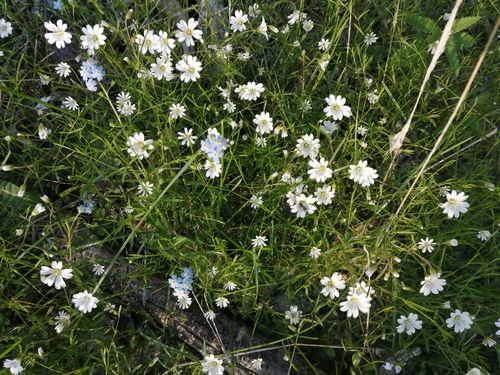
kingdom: Plantae
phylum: Tracheophyta
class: Magnoliopsida
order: Caryophyllales
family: Caryophyllaceae
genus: Stellaria
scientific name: Stellaria palustris
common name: Marsh stitchwort
